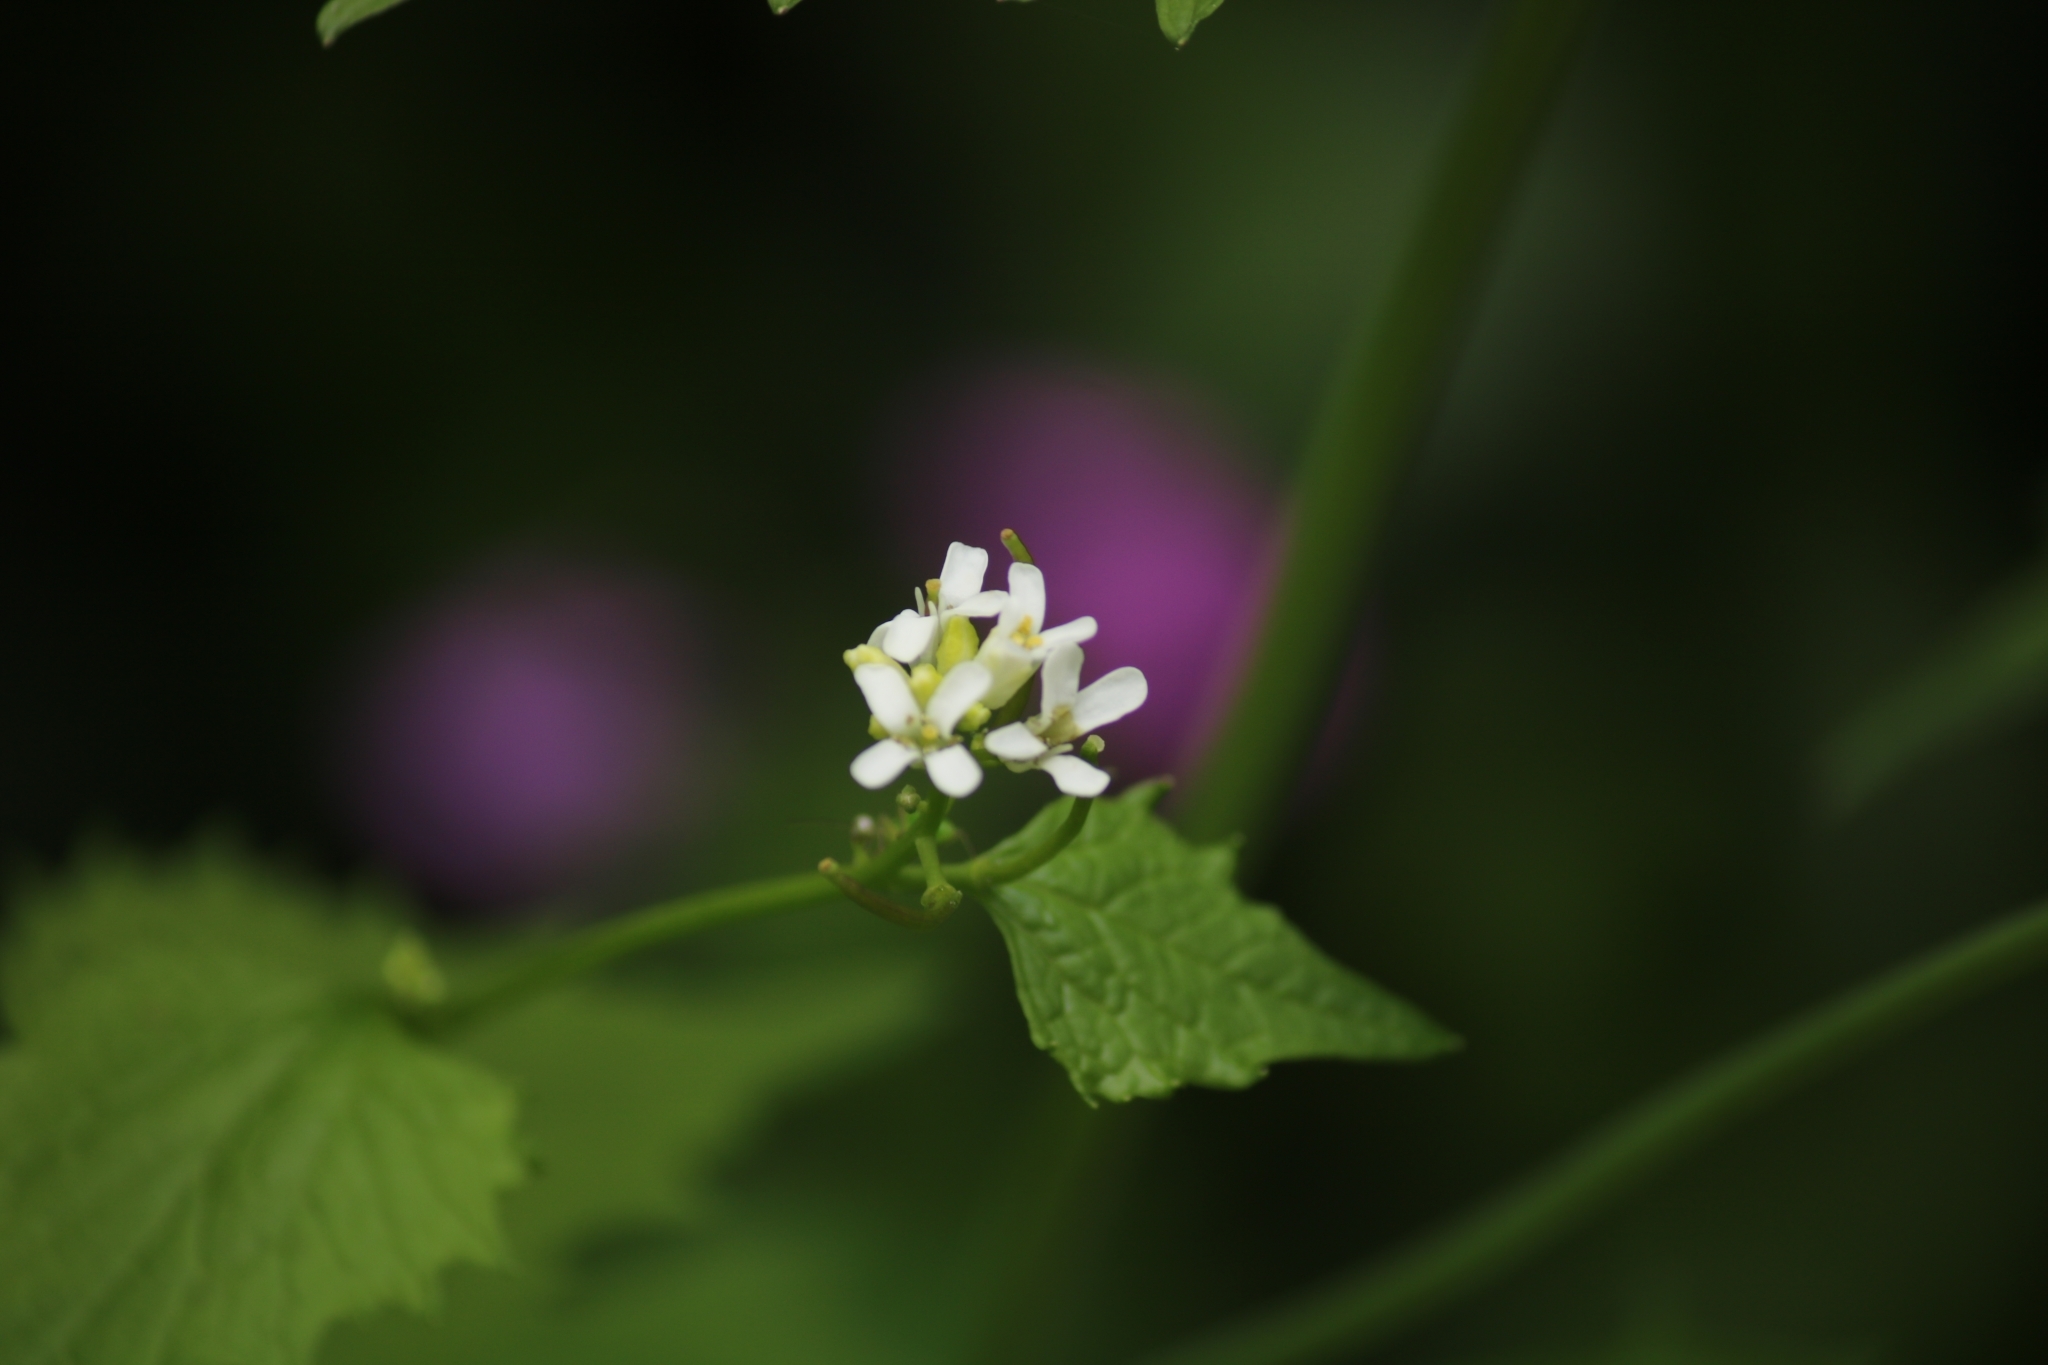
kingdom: Plantae
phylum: Tracheophyta
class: Magnoliopsida
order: Brassicales
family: Brassicaceae
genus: Alliaria
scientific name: Alliaria petiolata
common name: Garlic mustard
